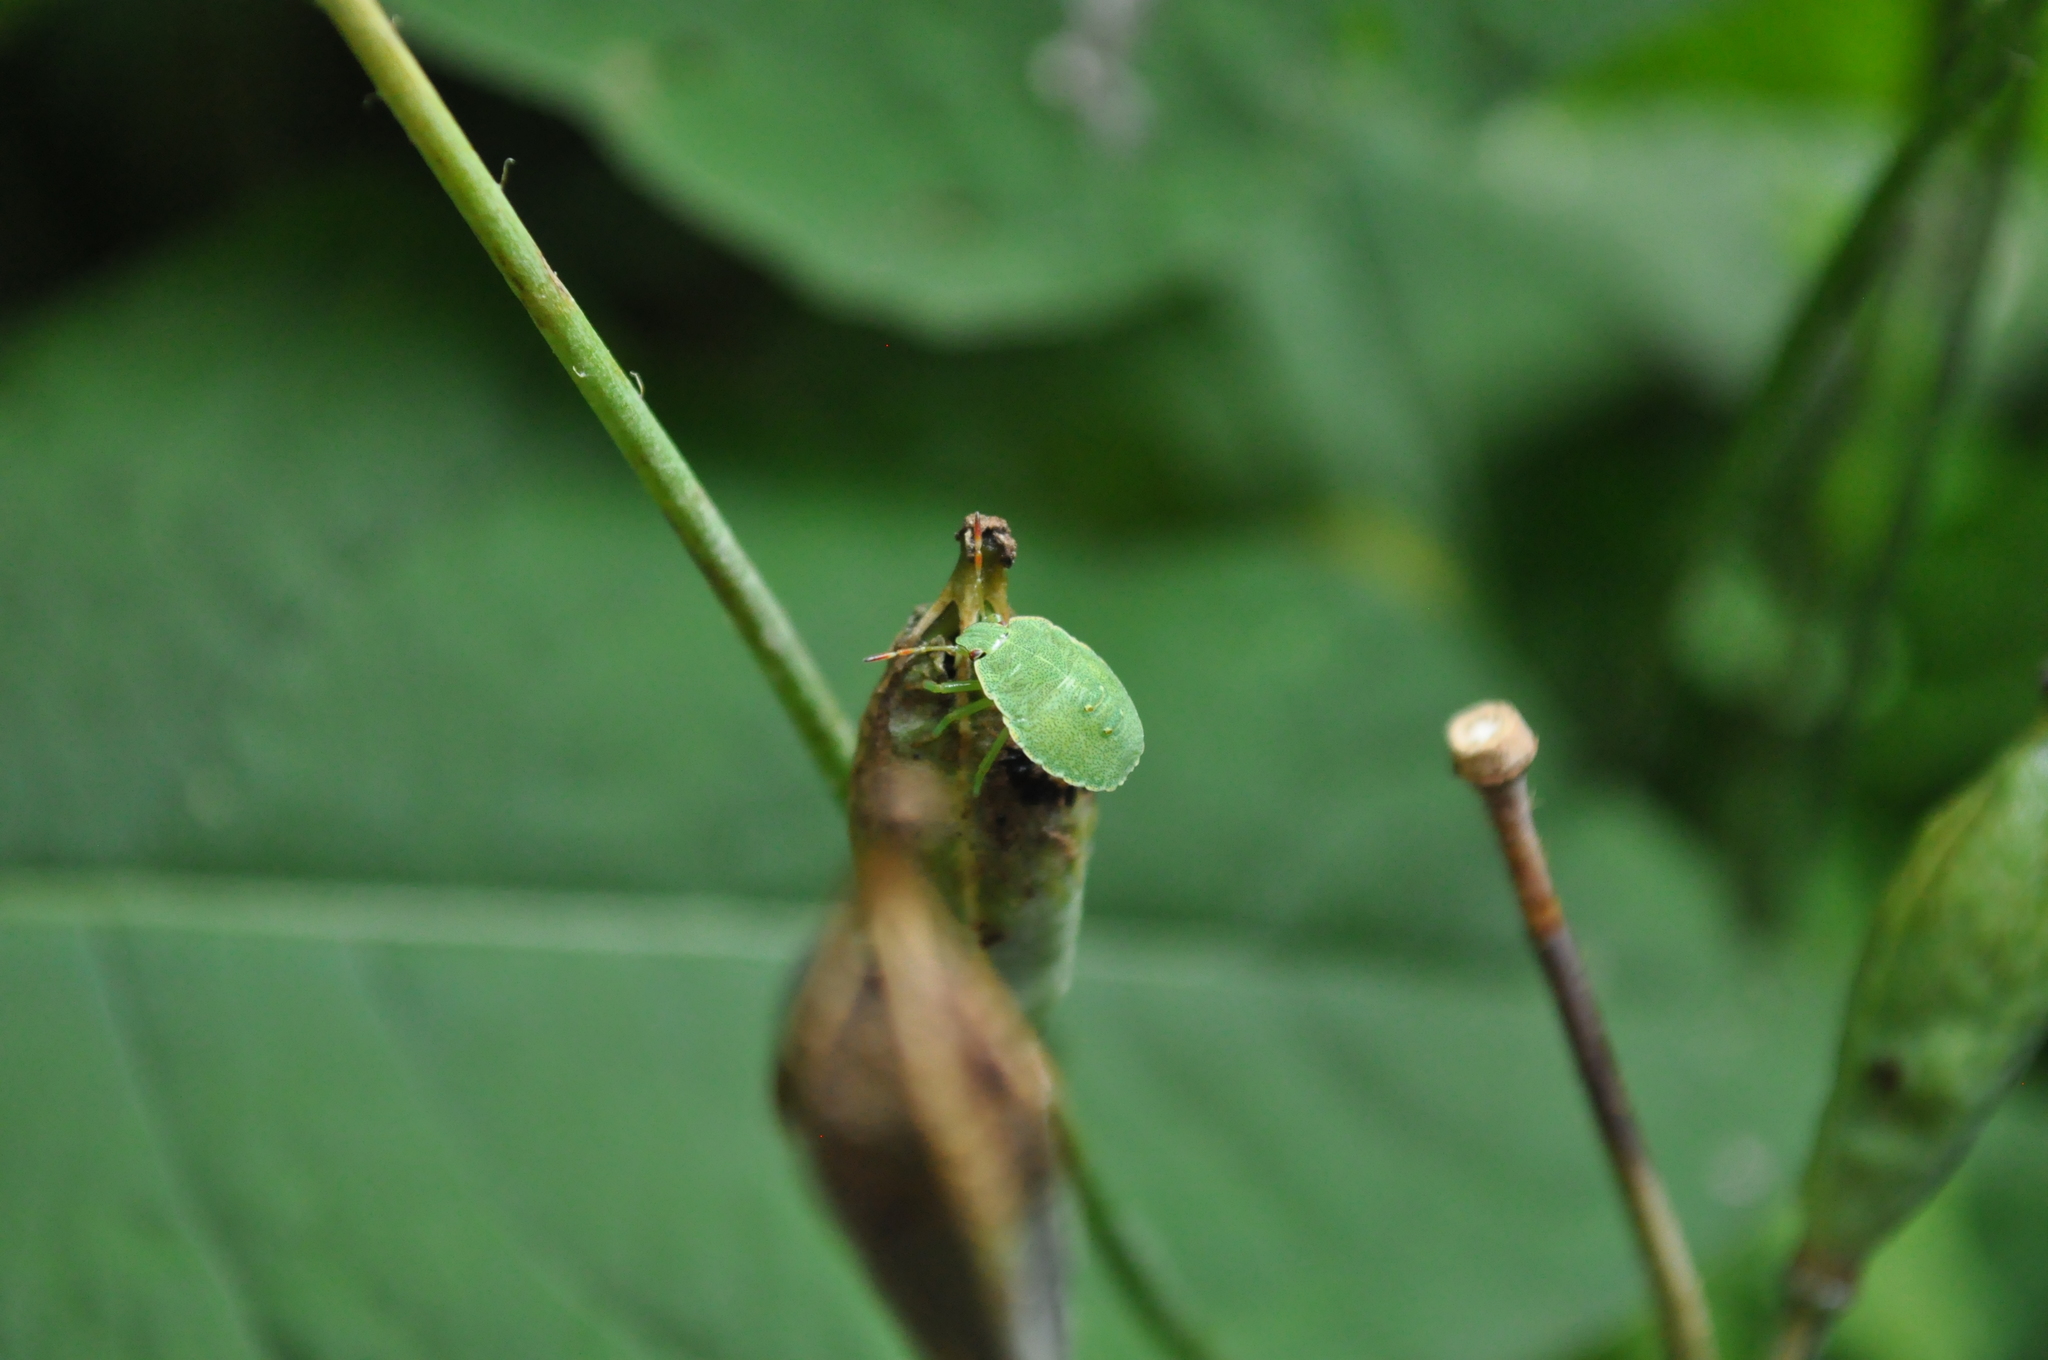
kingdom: Animalia
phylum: Arthropoda
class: Insecta
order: Hemiptera
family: Pentatomidae
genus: Palomena
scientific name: Palomena prasina
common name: Green shieldbug
